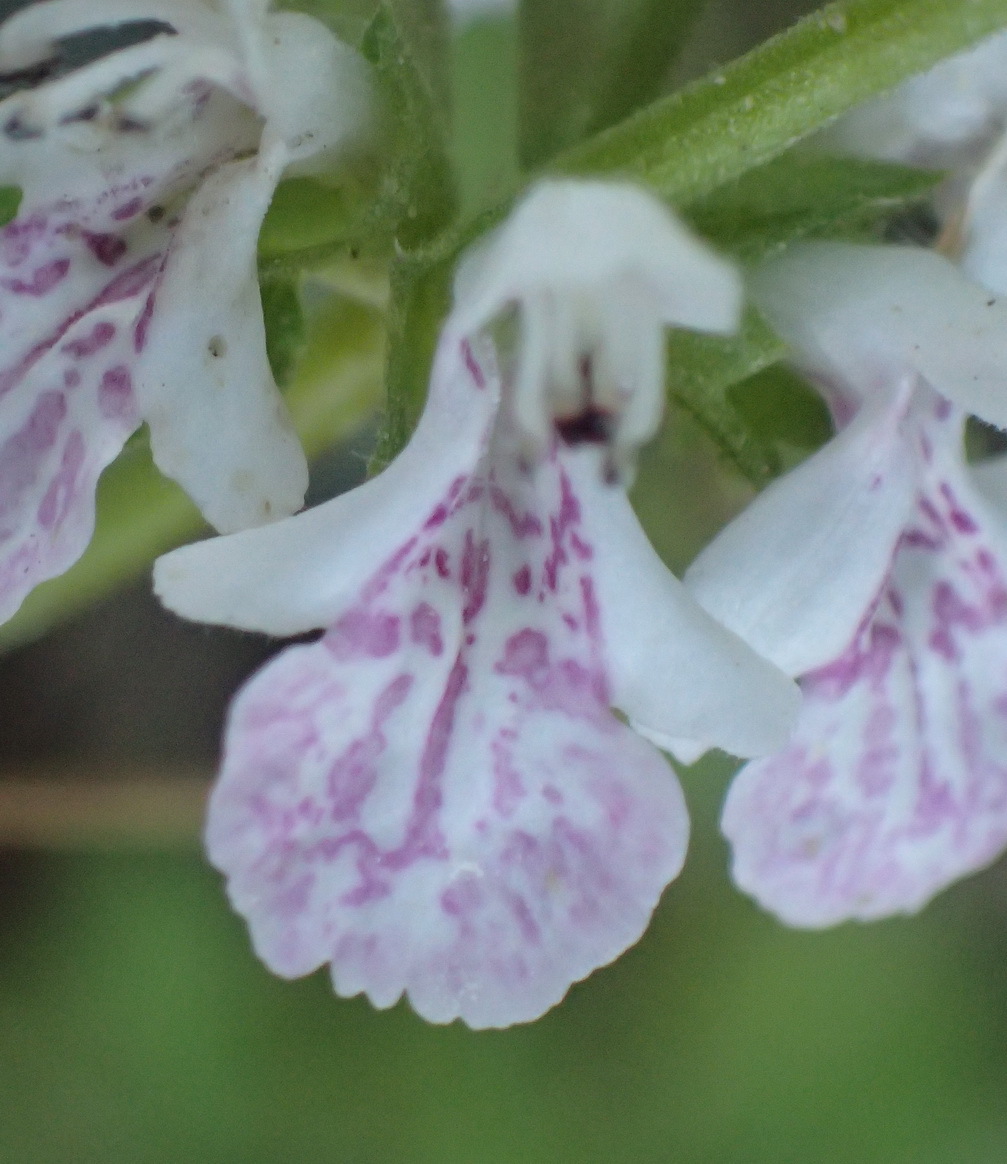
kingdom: Plantae
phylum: Tracheophyta
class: Magnoliopsida
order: Lamiales
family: Lamiaceae
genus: Stachys
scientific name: Stachys aethiopica
